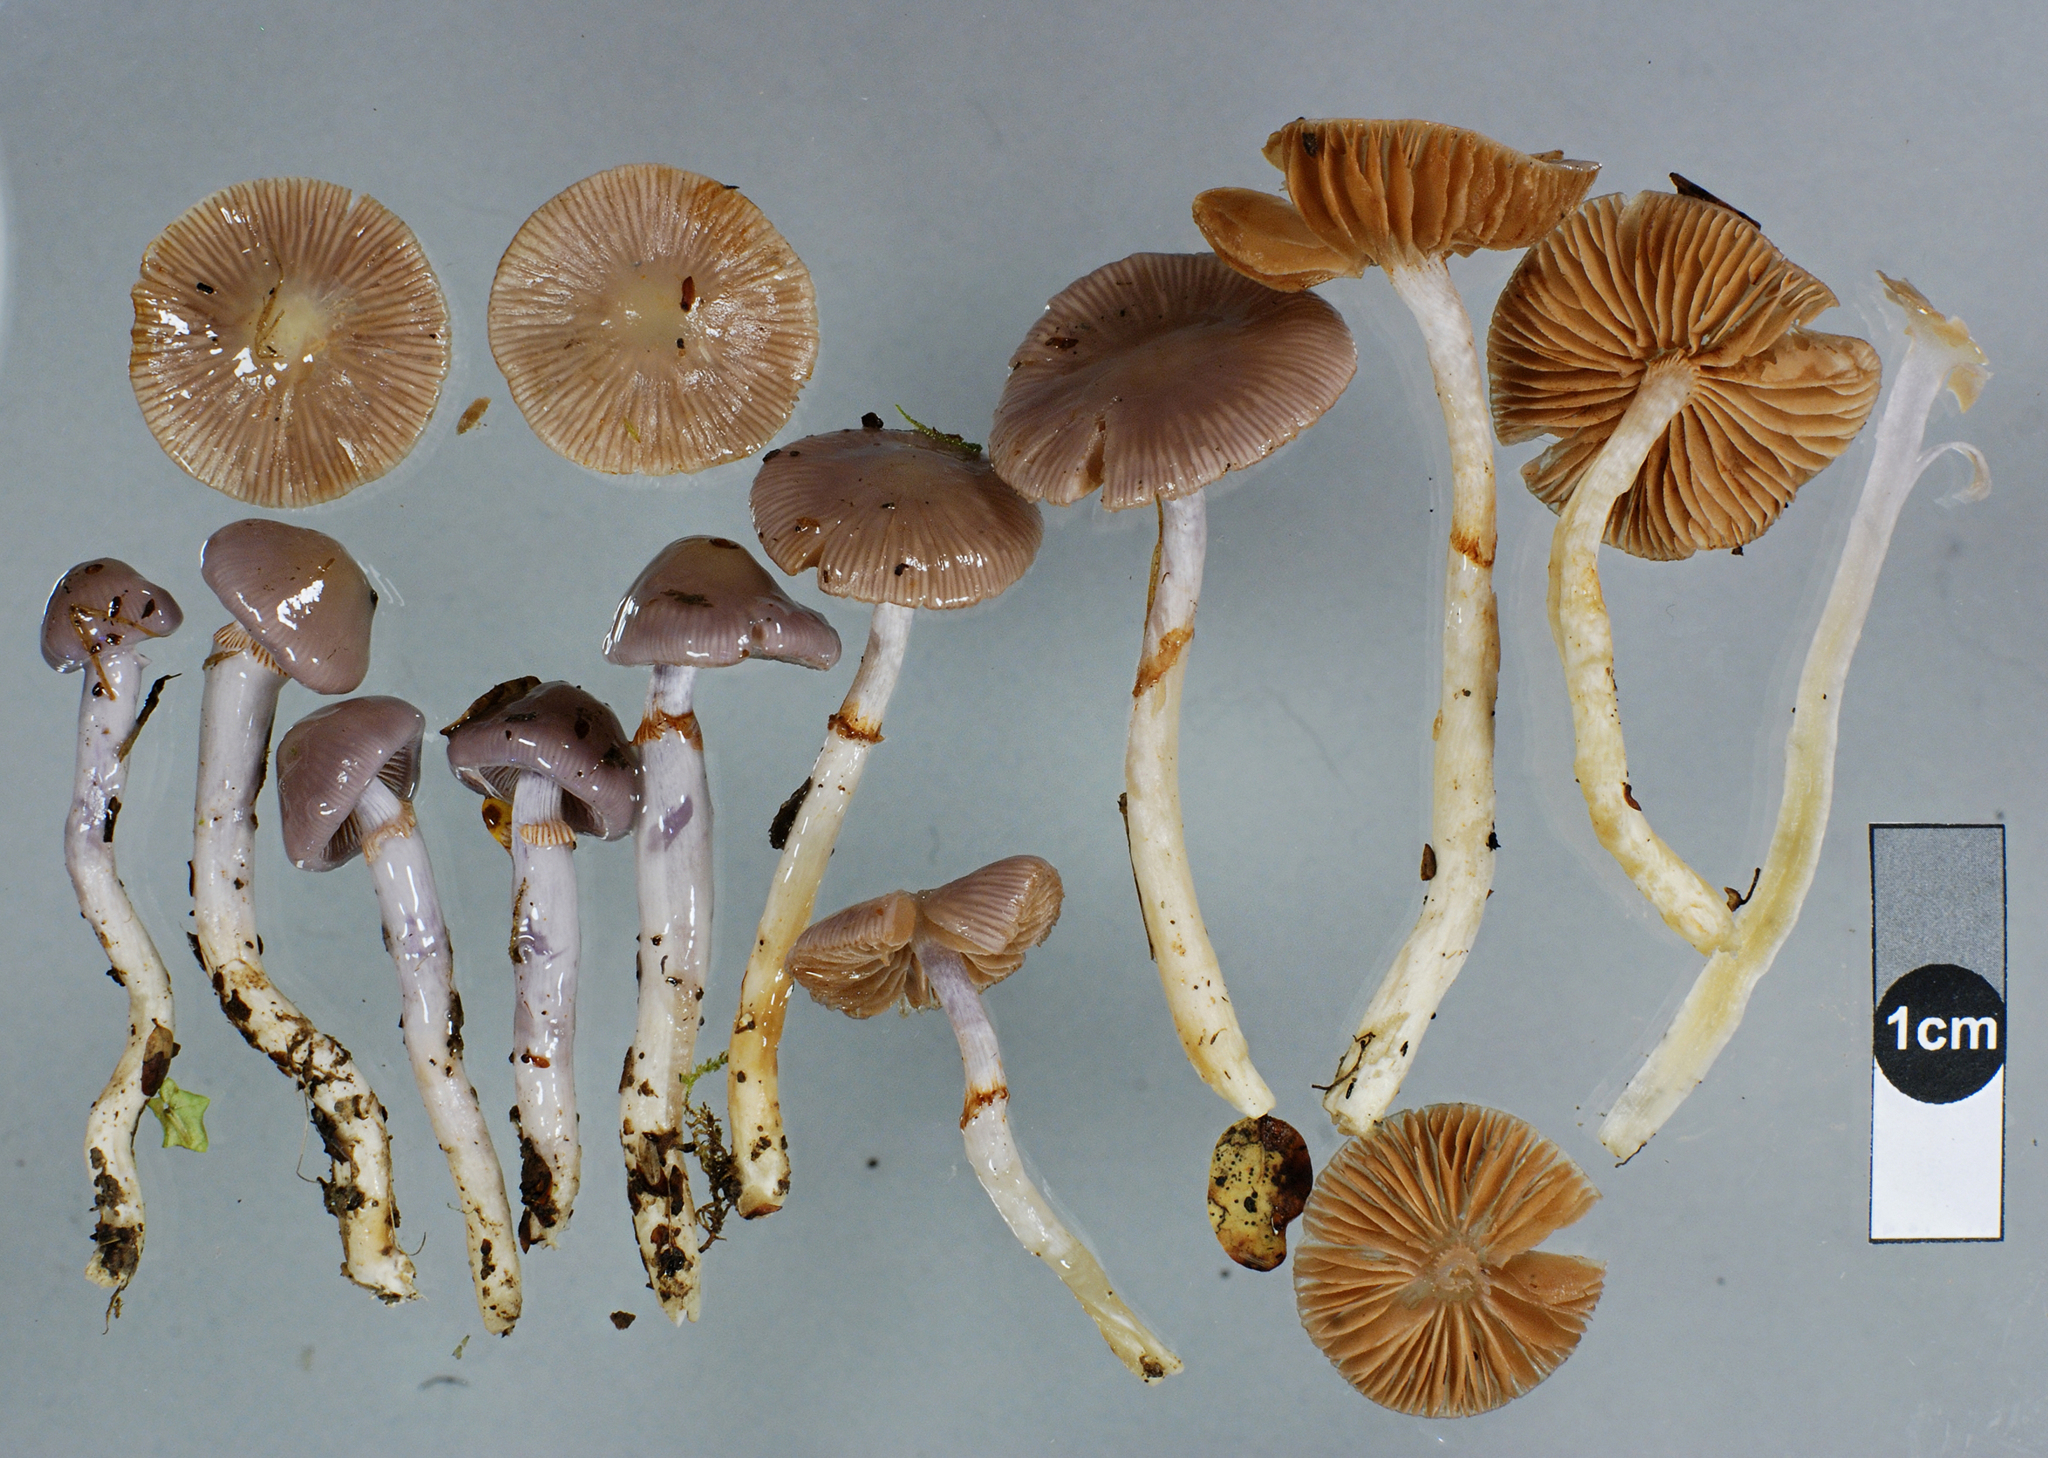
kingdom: Fungi
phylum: Basidiomycota
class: Agaricomycetes
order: Agaricales
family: Cortinariaceae
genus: Cortinarius
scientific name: Cortinarius lubricanescens
